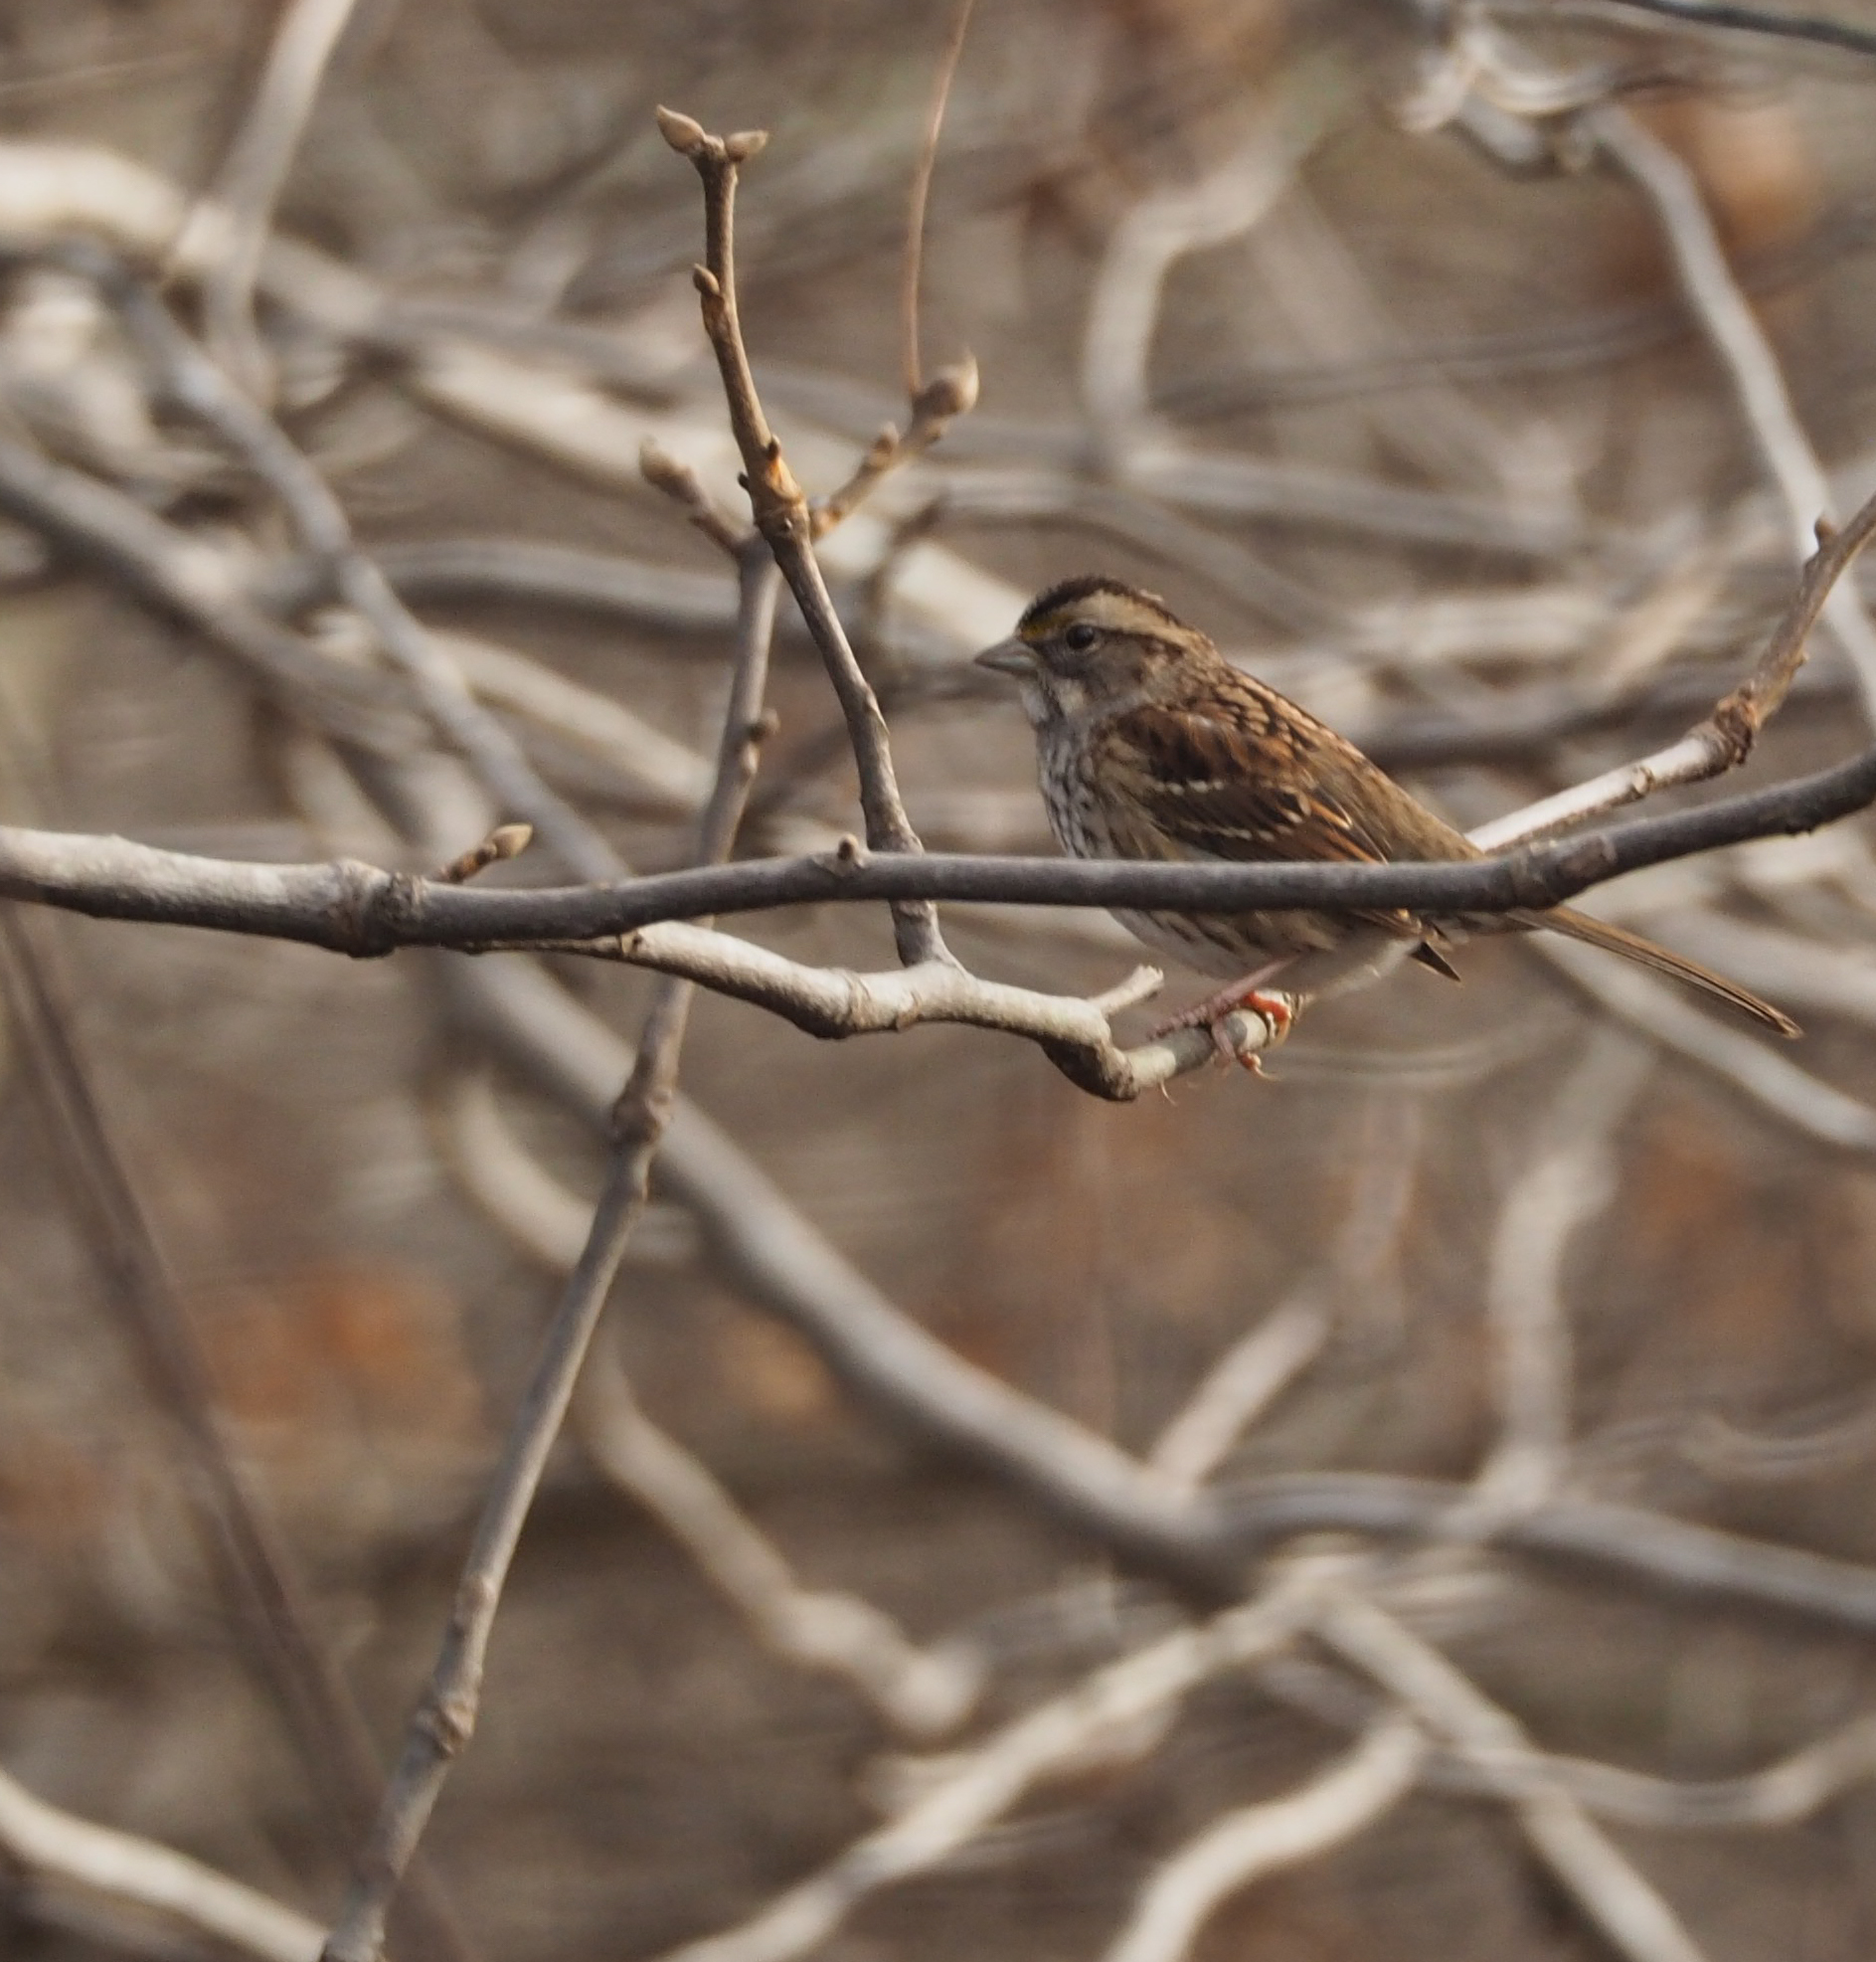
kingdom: Animalia
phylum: Chordata
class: Aves
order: Passeriformes
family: Passerellidae
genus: Zonotrichia
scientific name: Zonotrichia albicollis
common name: White-throated sparrow
